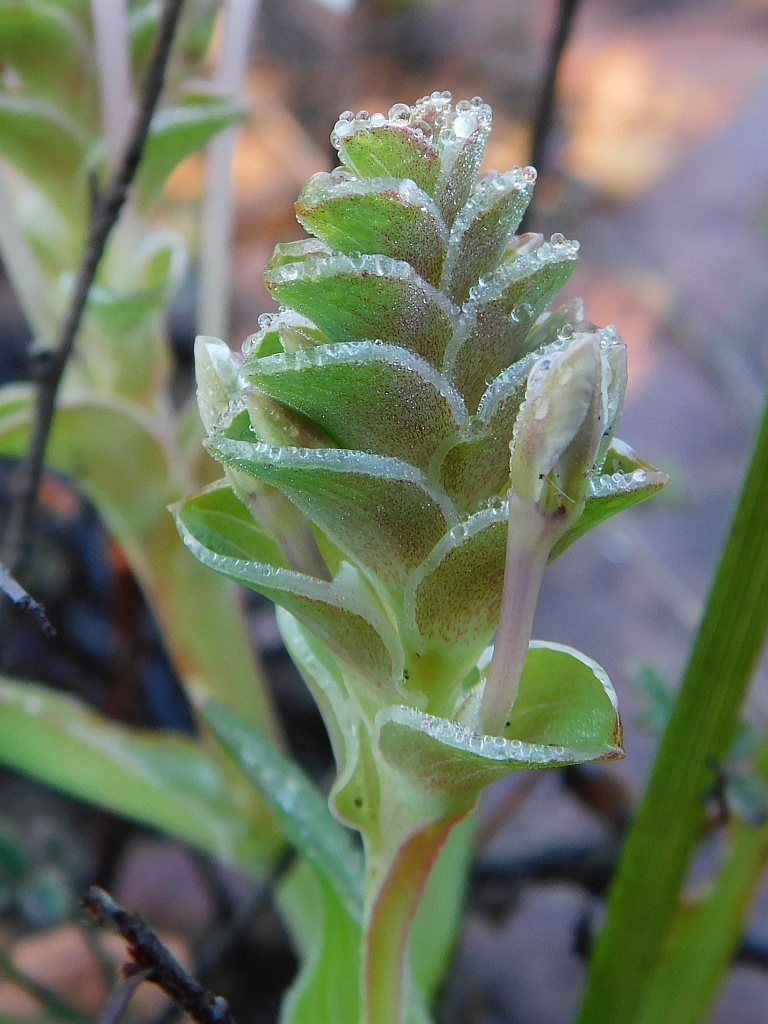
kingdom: Plantae
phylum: Tracheophyta
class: Liliopsida
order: Asparagales
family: Iridaceae
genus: Lapeirousia
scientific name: Lapeirousia pyramidalis
